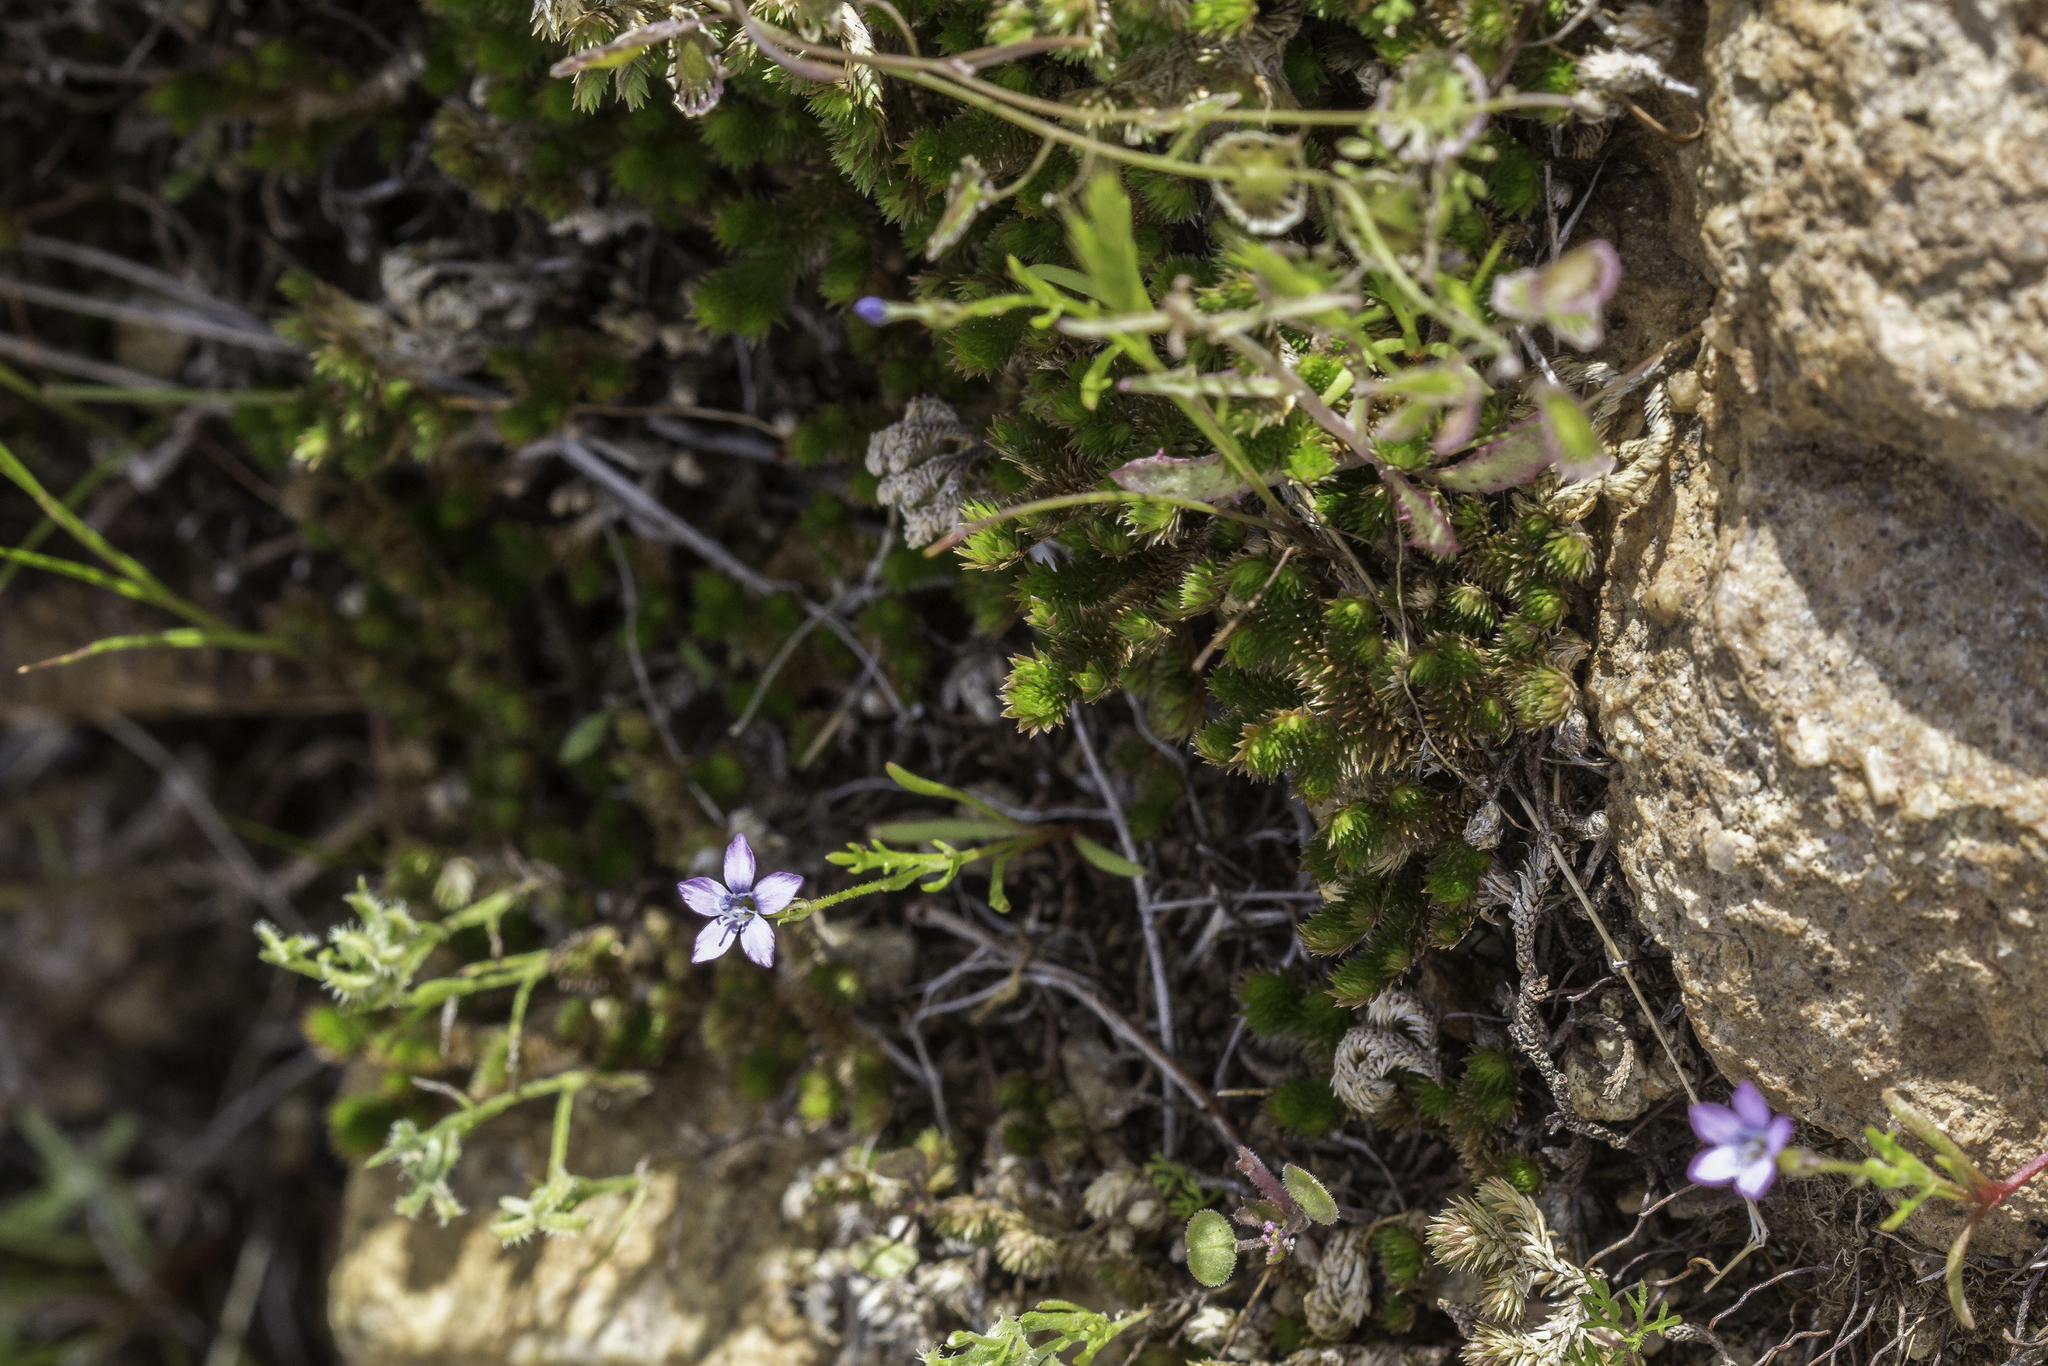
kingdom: Plantae
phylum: Tracheophyta
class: Magnoliopsida
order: Ericales
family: Polemoniaceae
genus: Gilia
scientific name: Gilia flavocincta
